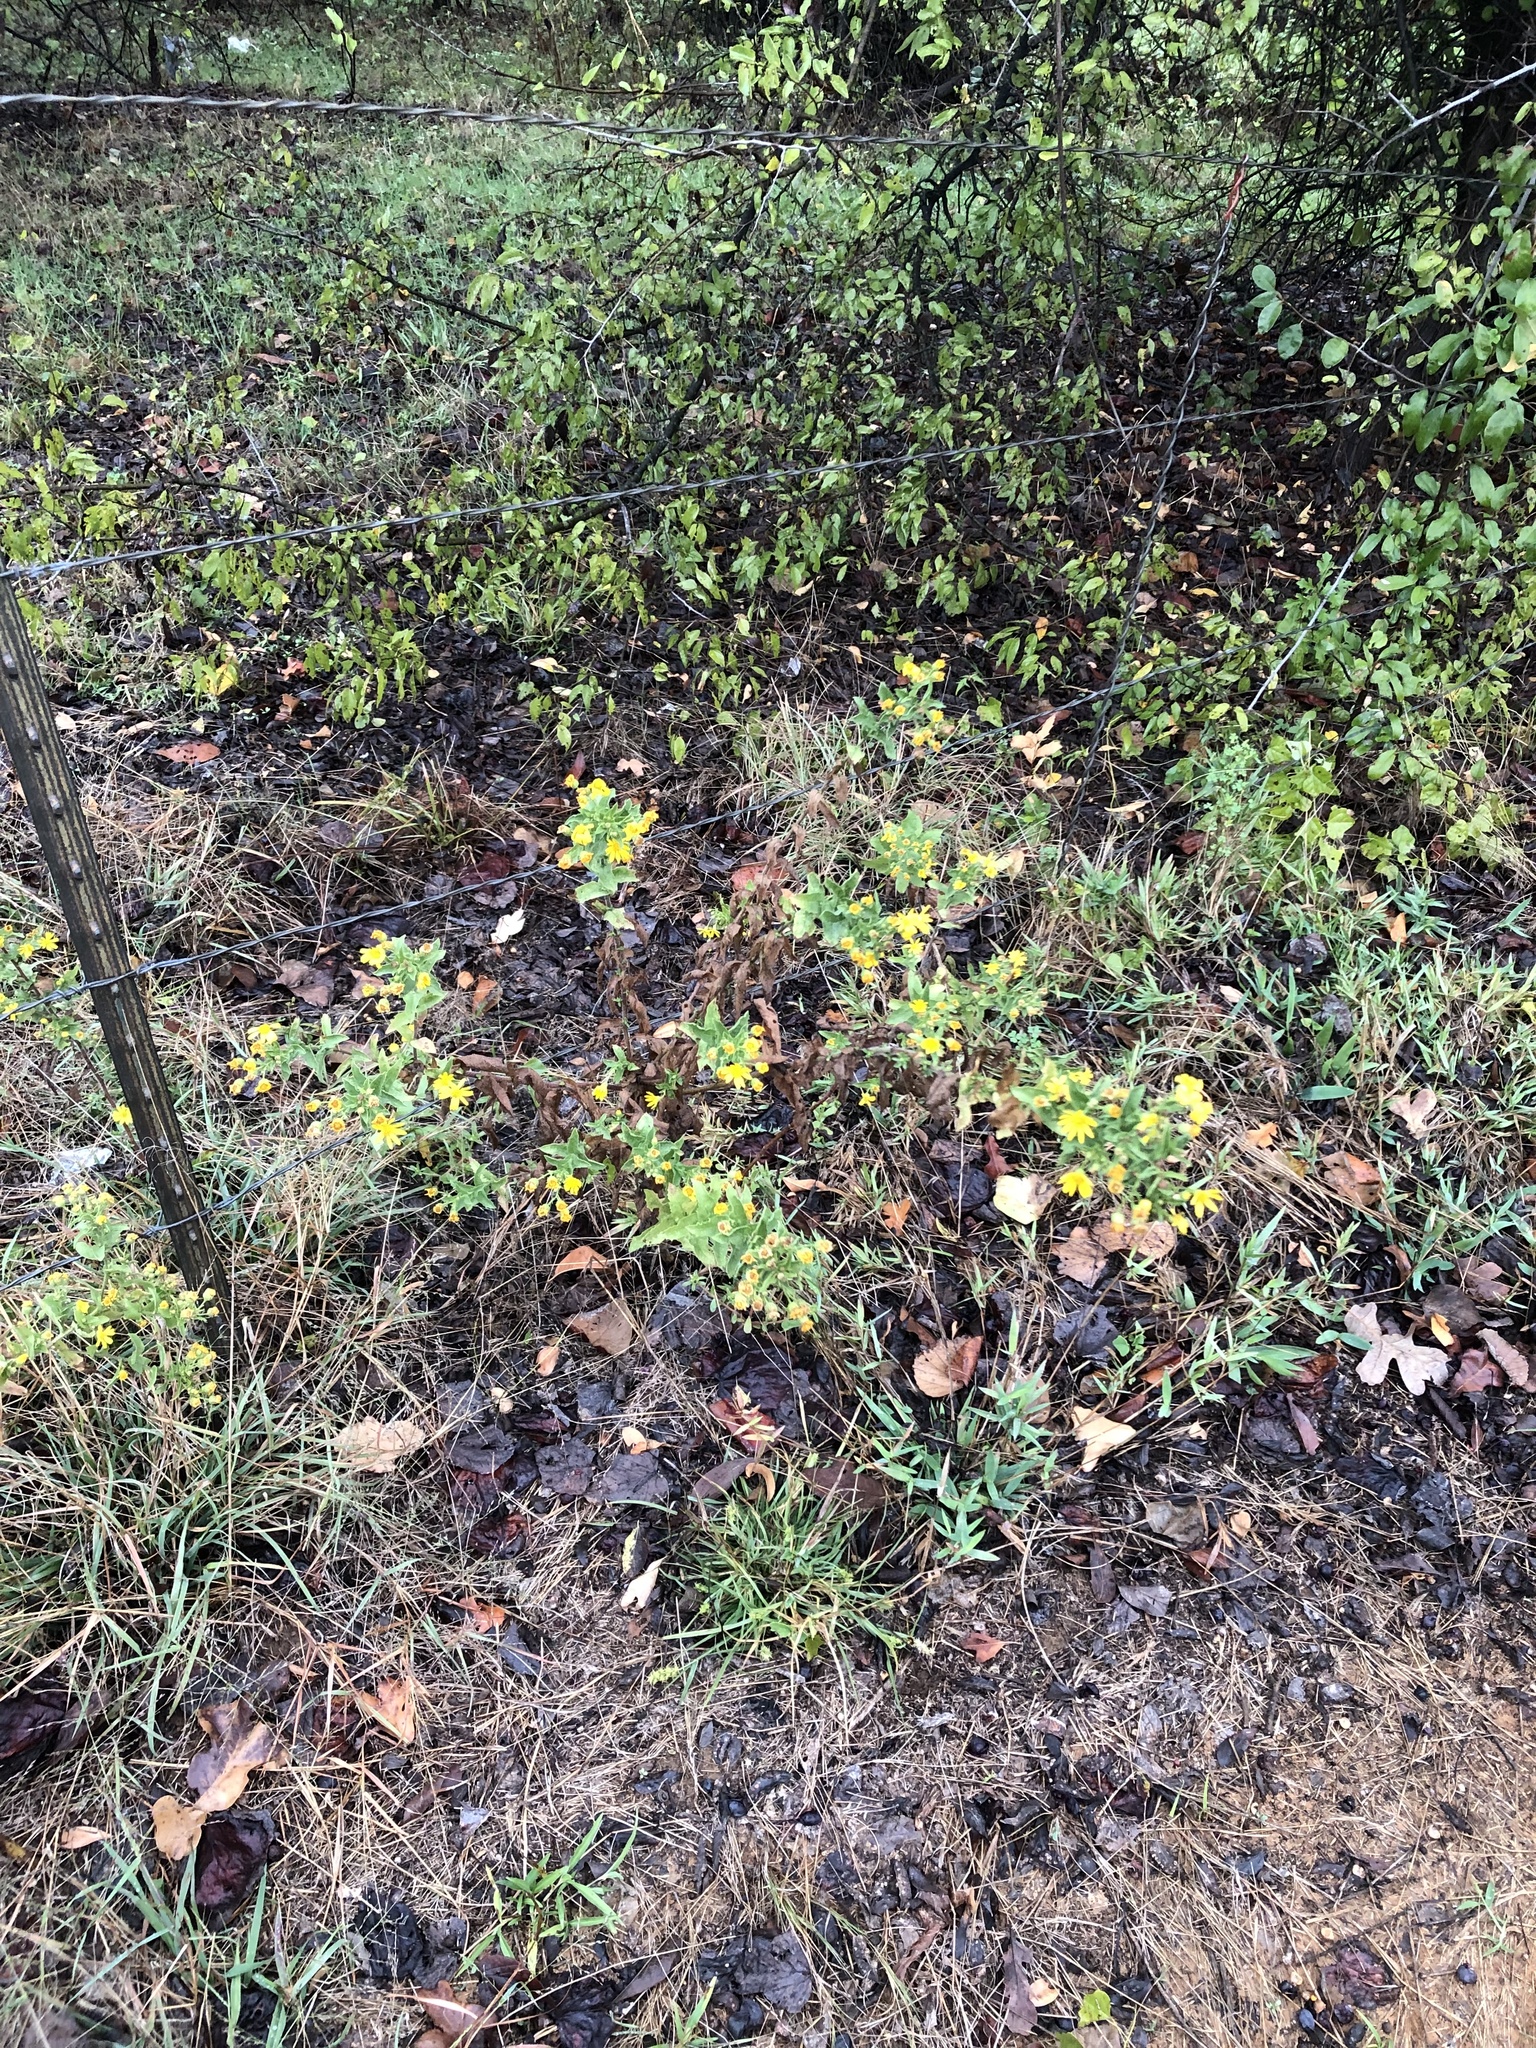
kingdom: Plantae
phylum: Tracheophyta
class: Magnoliopsida
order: Asterales
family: Asteraceae
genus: Heterotheca
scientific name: Heterotheca subaxillaris
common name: Camphorweed
